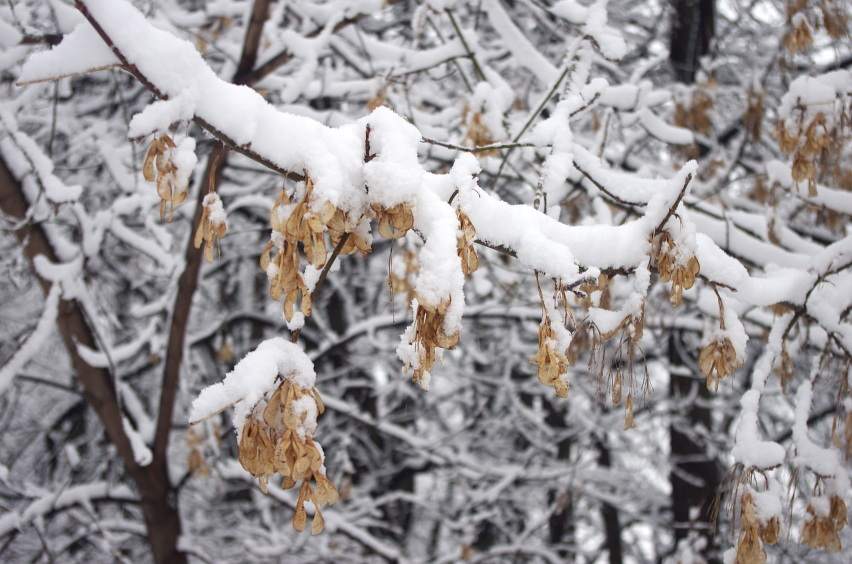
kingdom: Plantae
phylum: Tracheophyta
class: Magnoliopsida
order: Sapindales
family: Sapindaceae
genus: Acer
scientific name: Acer negundo
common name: Ashleaf maple
